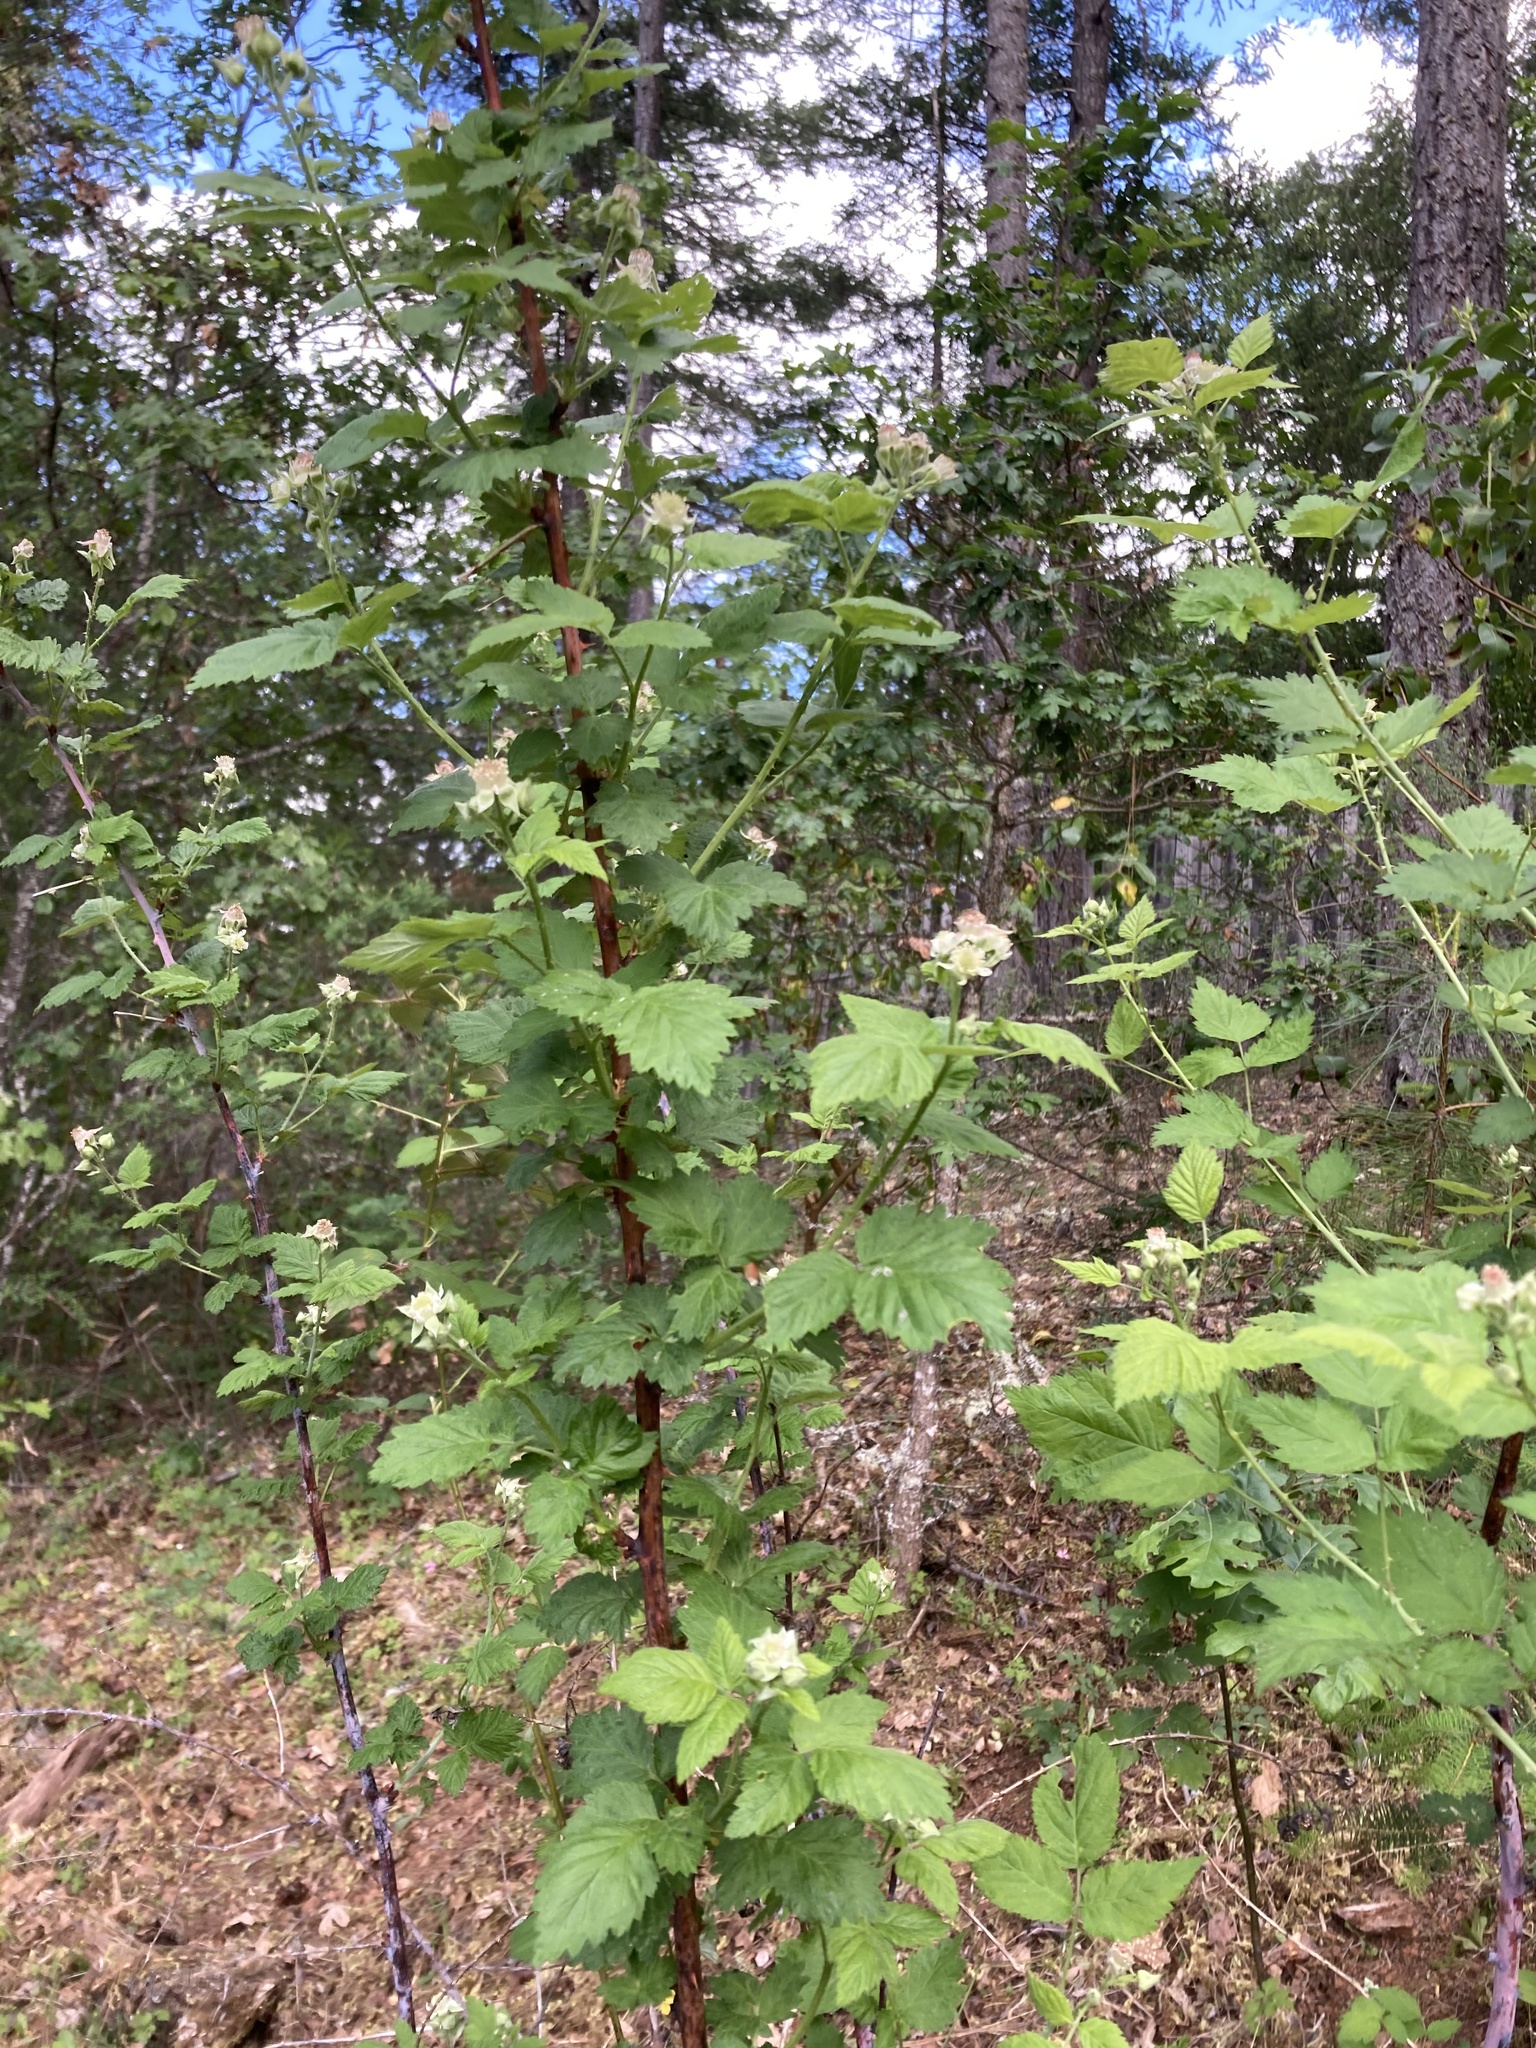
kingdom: Plantae
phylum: Tracheophyta
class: Magnoliopsida
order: Rosales
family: Rosaceae
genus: Rubus
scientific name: Rubus parviflorus
